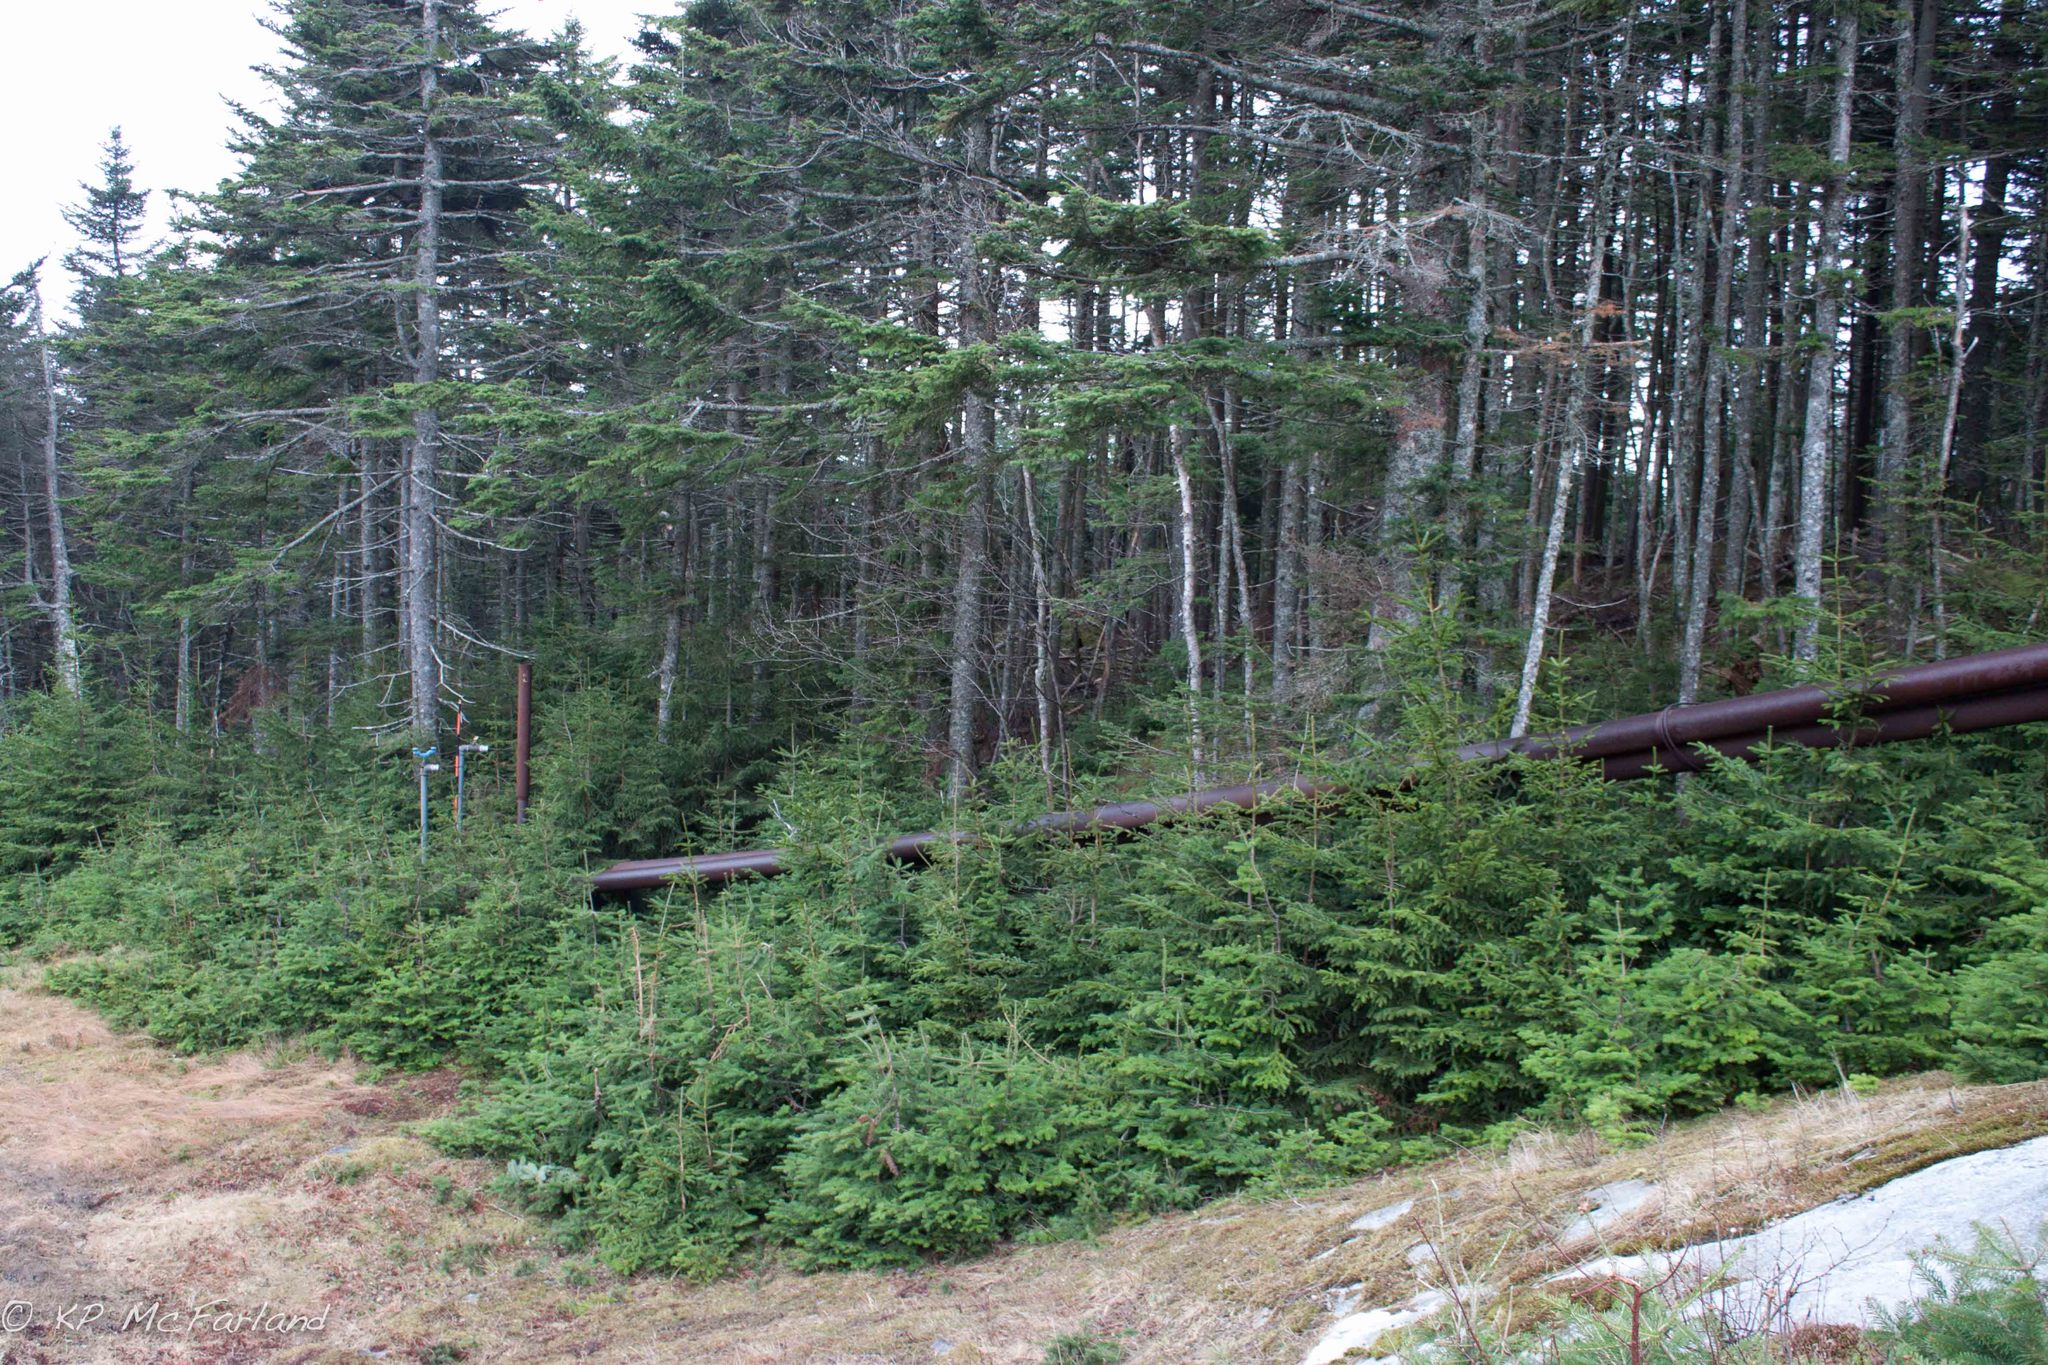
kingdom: Plantae
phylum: Tracheophyta
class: Pinopsida
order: Pinales
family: Pinaceae
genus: Abies
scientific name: Abies balsamea
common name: Balsam fir
